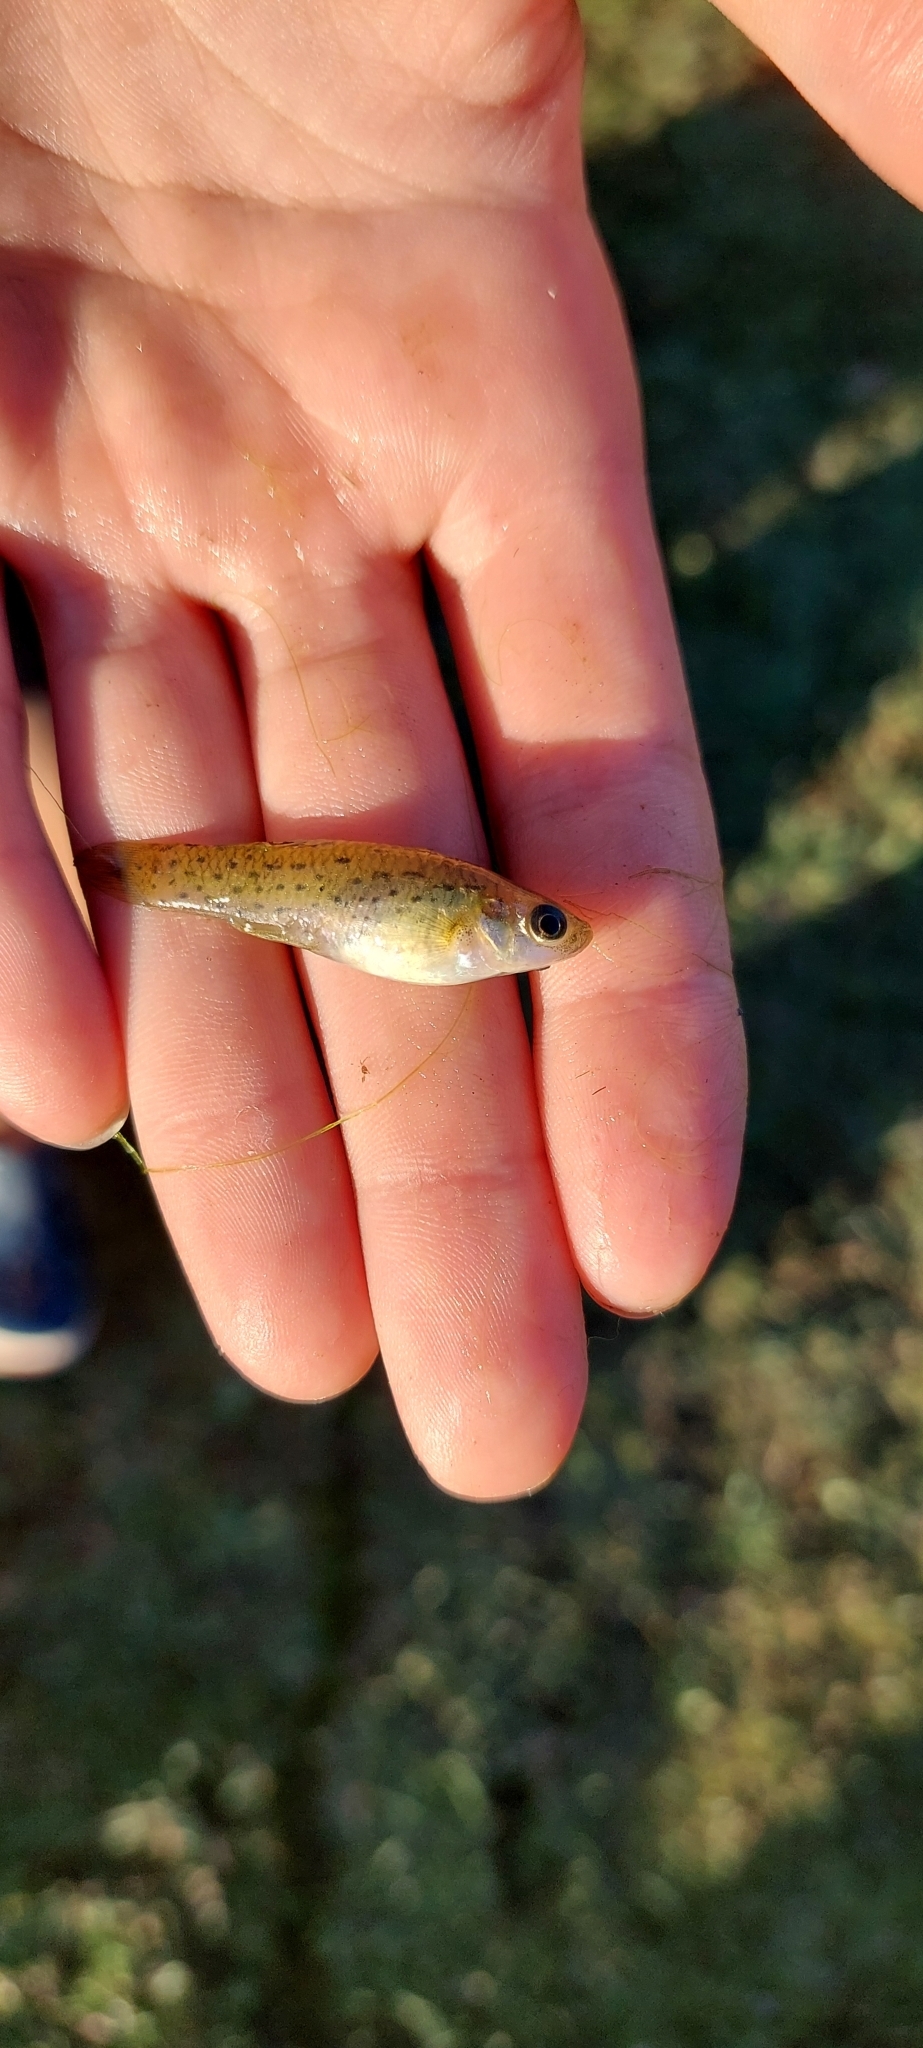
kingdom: Animalia
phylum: Chordata
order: Cyprinodontiformes
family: Anablepidae
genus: Jenynsia
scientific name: Jenynsia lineata
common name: Onesided livebearer
